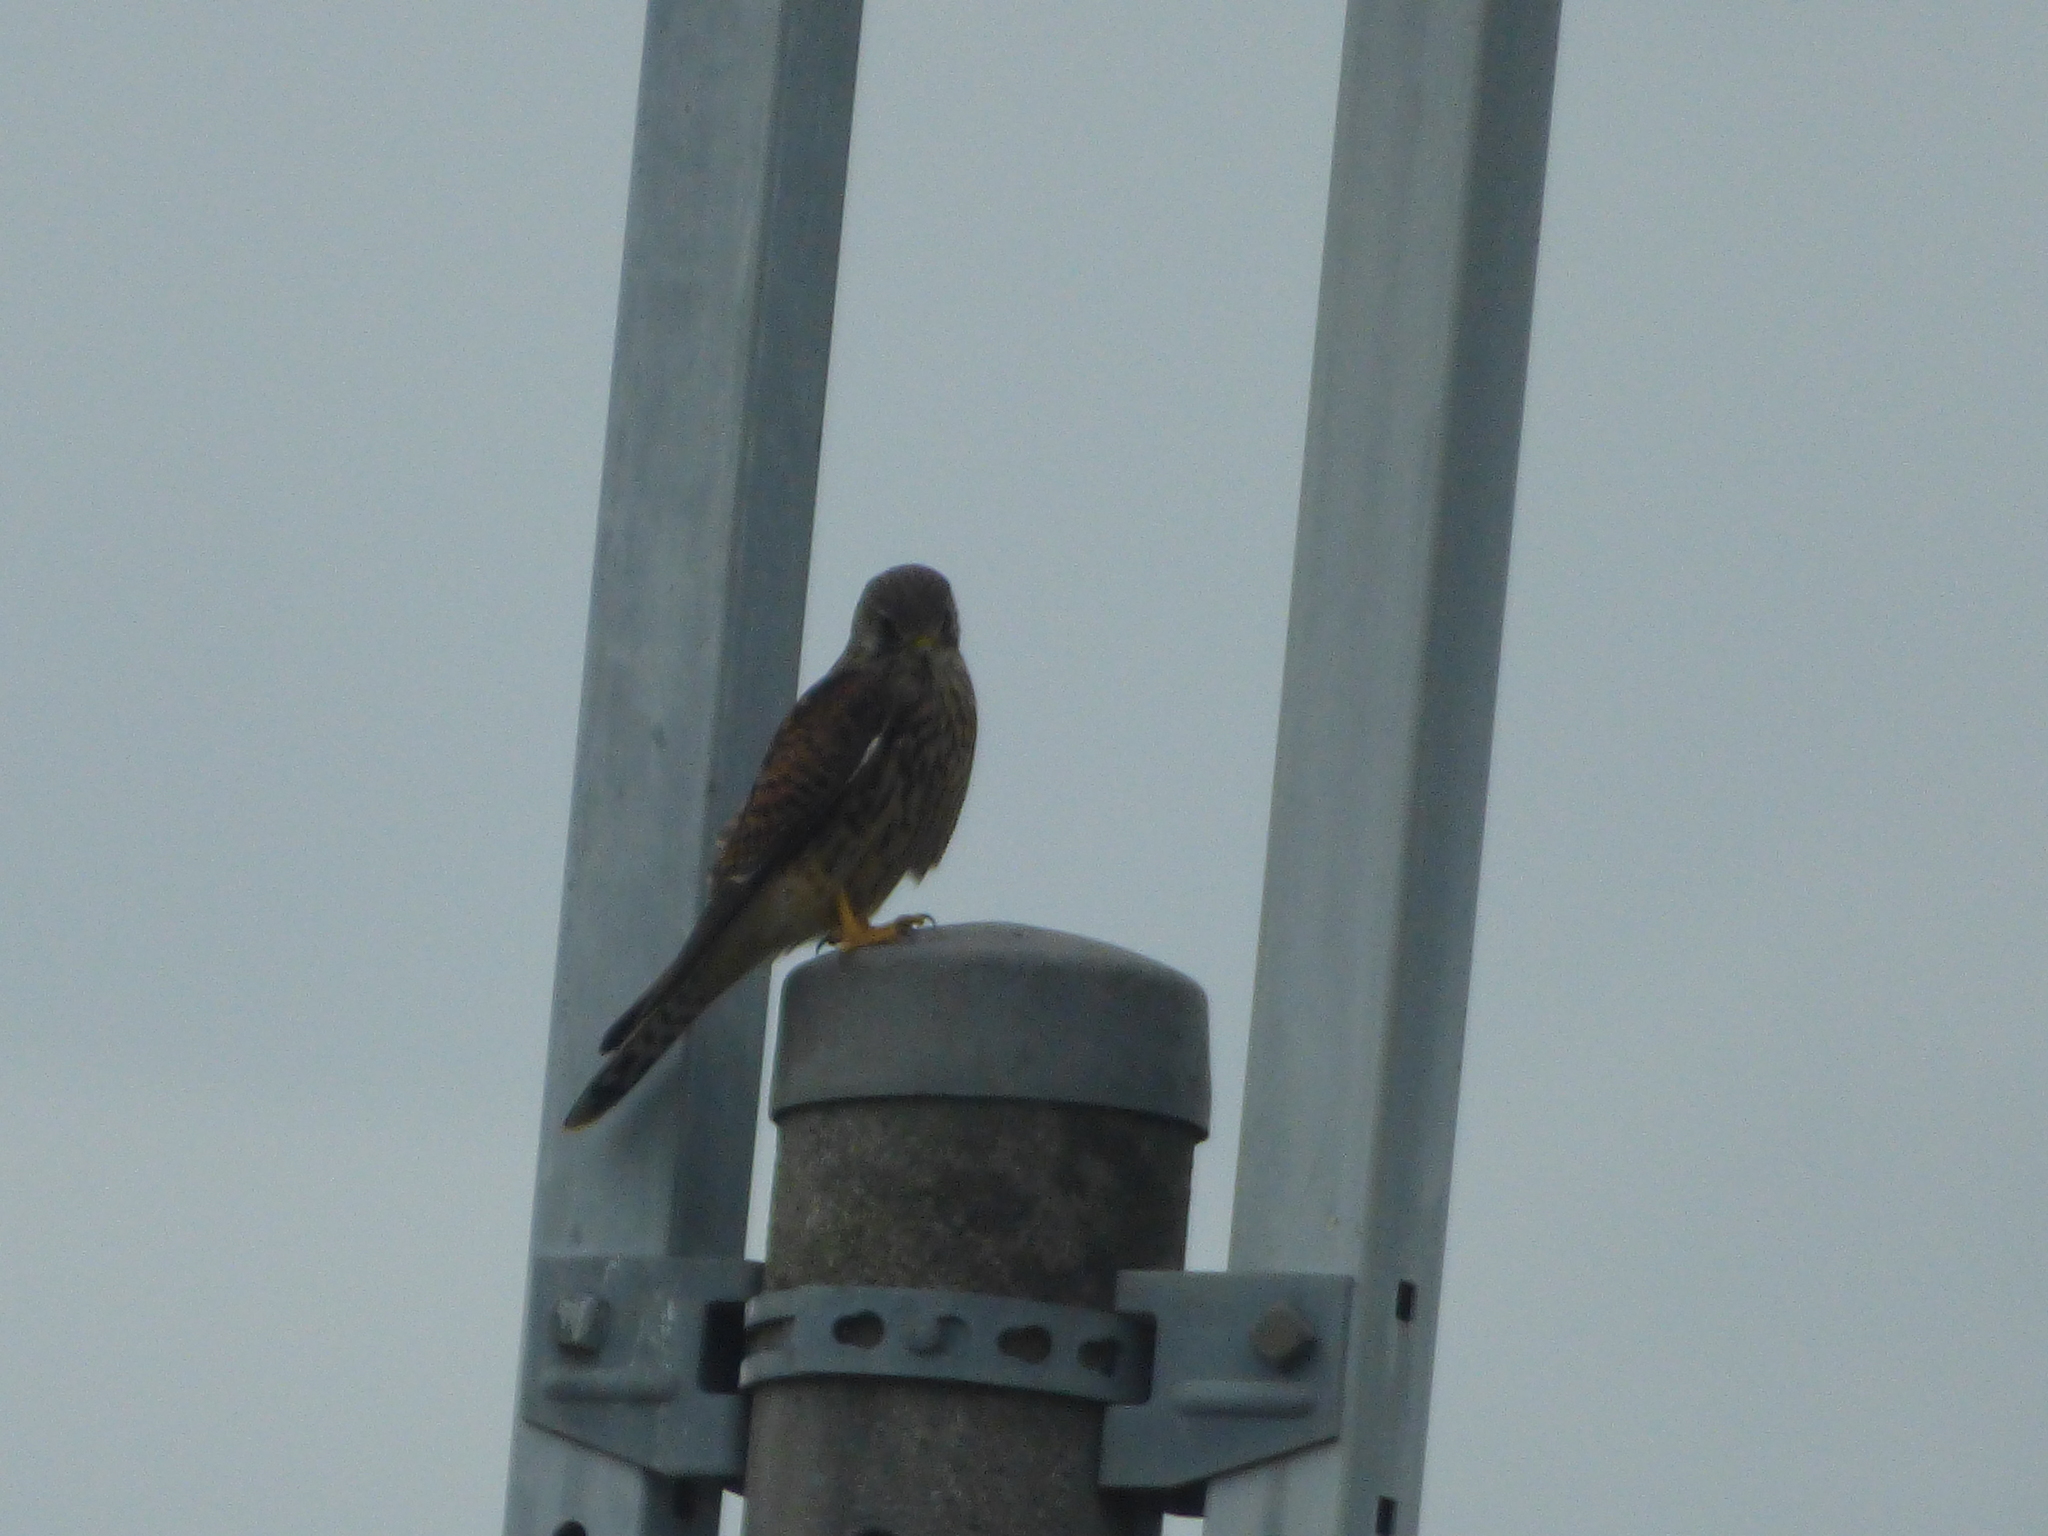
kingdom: Animalia
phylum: Chordata
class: Aves
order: Falconiformes
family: Falconidae
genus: Falco
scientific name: Falco tinnunculus
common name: Common kestrel
